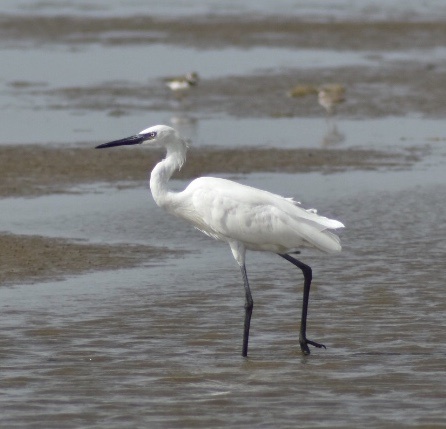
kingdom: Animalia
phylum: Chordata
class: Aves
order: Pelecaniformes
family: Ardeidae
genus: Egretta
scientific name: Egretta rufescens
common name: Reddish egret
